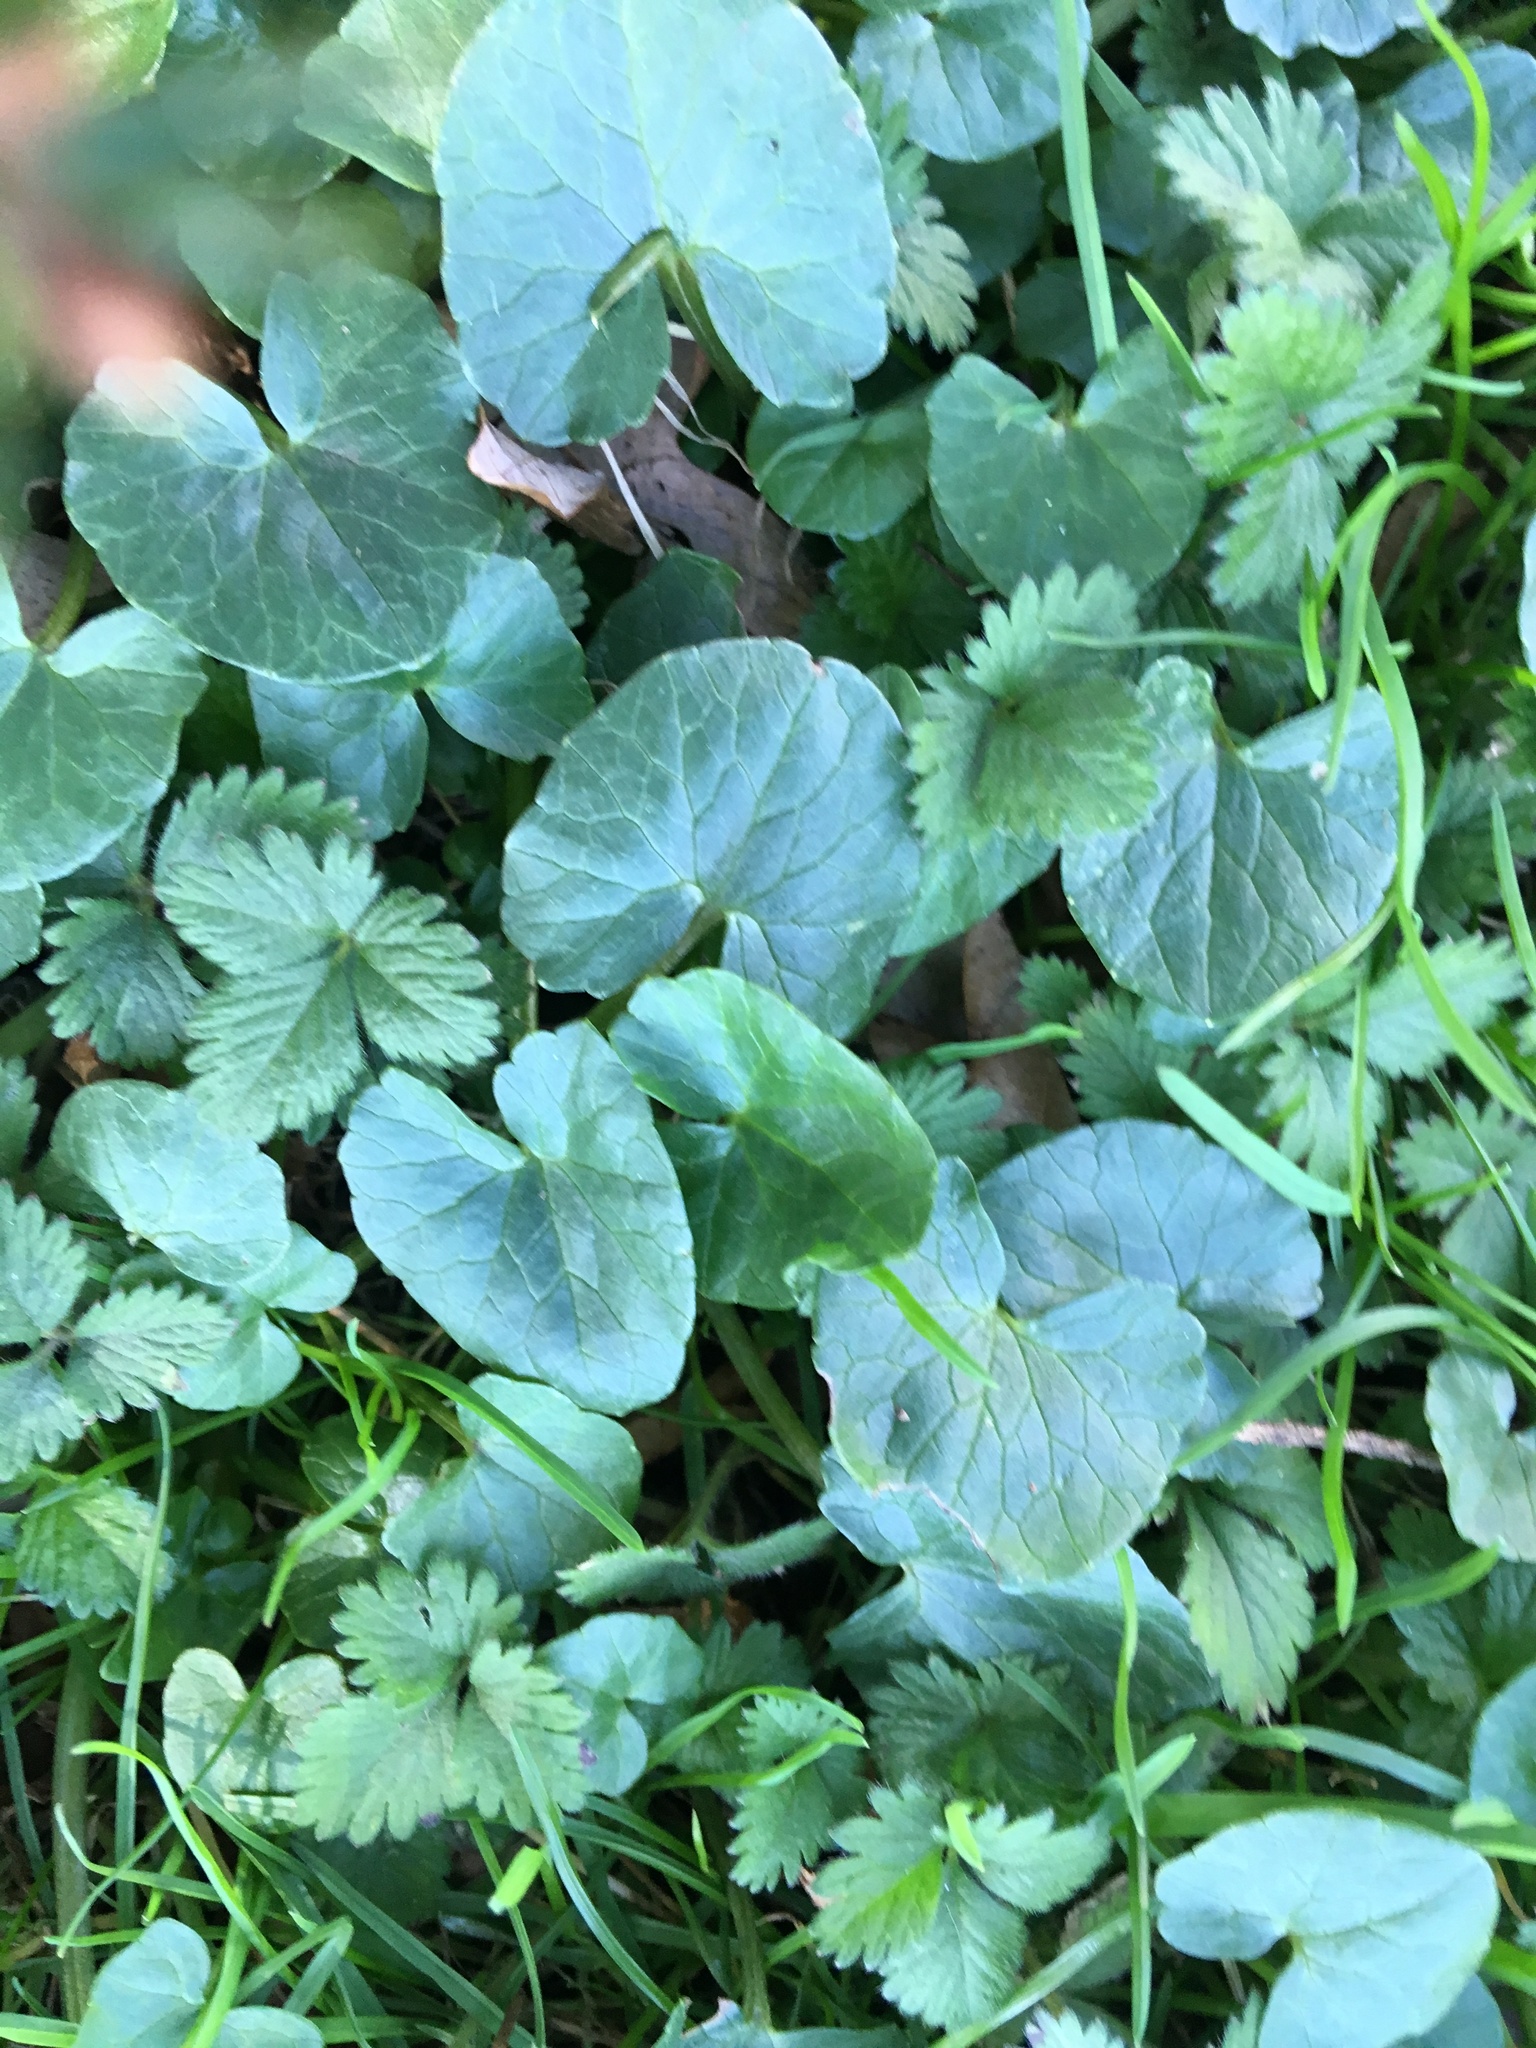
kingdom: Plantae
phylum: Tracheophyta
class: Magnoliopsida
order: Ranunculales
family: Ranunculaceae
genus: Ficaria
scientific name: Ficaria verna
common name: Lesser celandine
